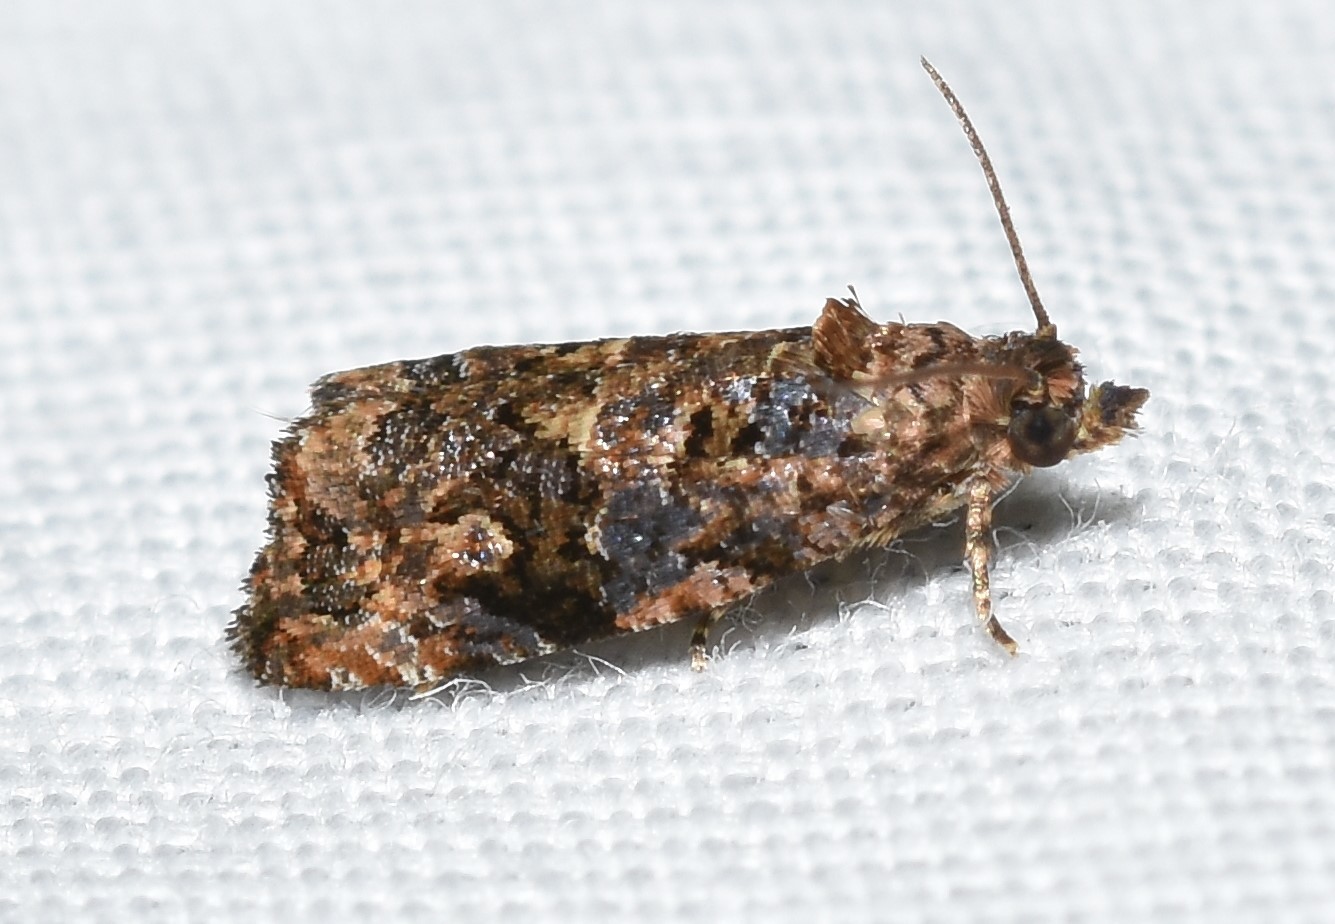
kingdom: Animalia
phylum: Arthropoda
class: Insecta
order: Lepidoptera
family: Tortricidae
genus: Endothenia
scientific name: Endothenia hebesana
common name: Verbena bud moth
